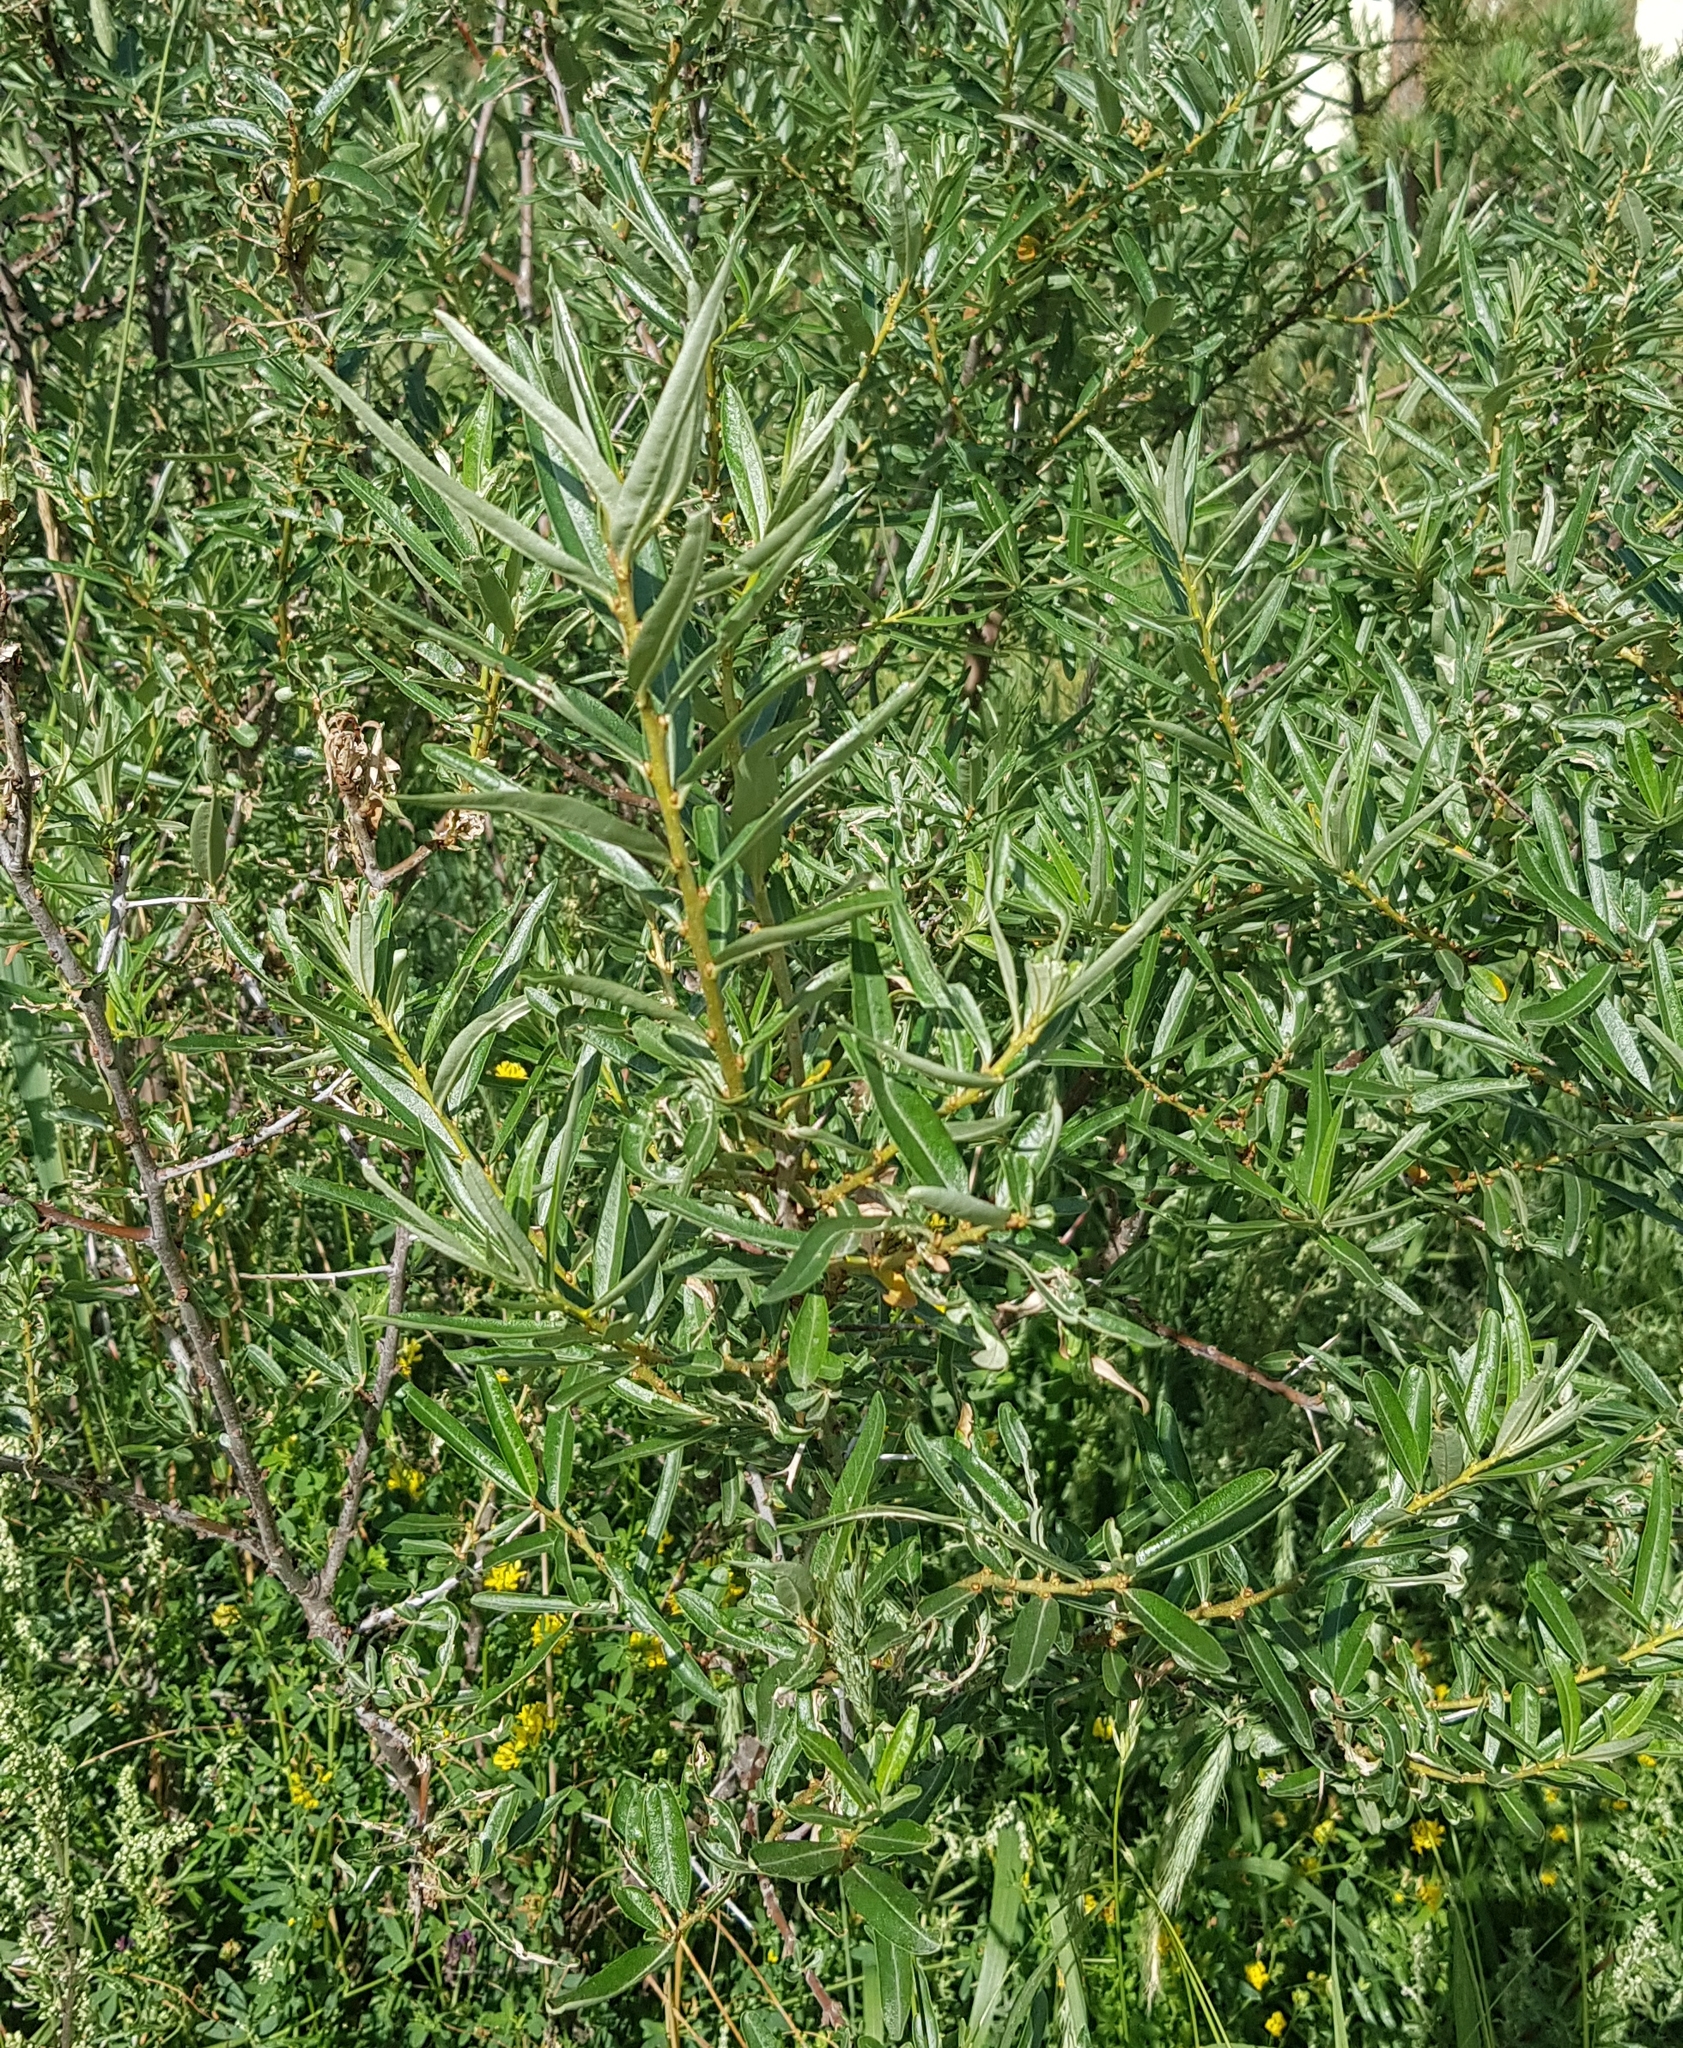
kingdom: Plantae
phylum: Tracheophyta
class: Magnoliopsida
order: Malpighiales
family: Salicaceae
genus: Salix
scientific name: Salix viminalis
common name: Osier
